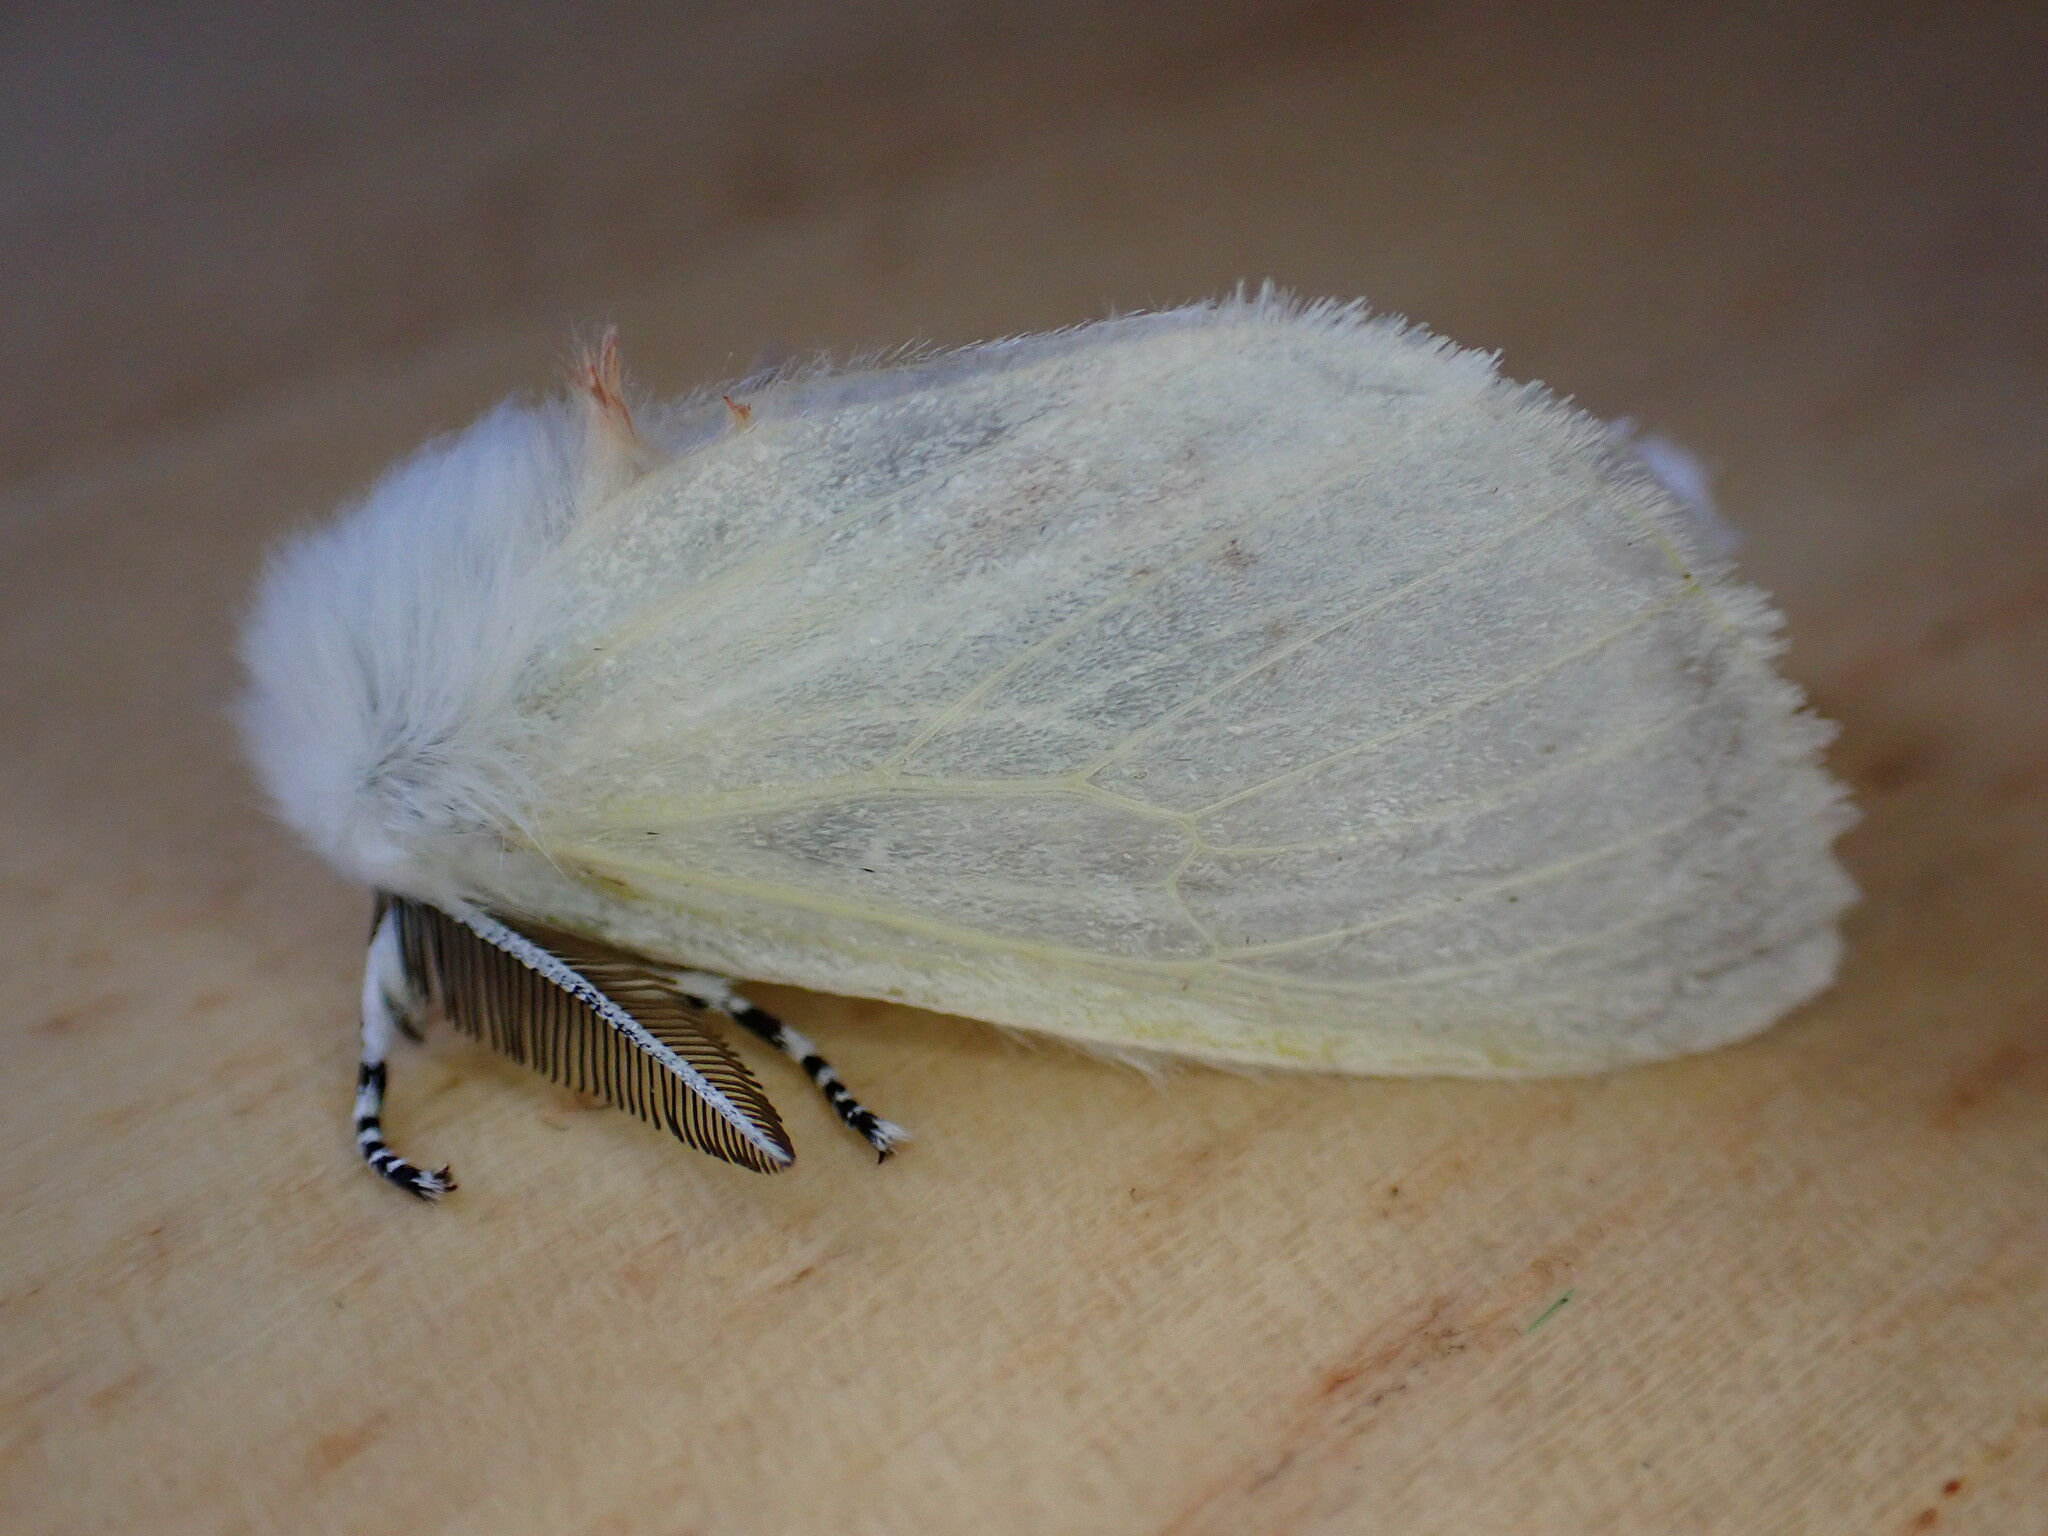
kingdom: Animalia
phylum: Arthropoda
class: Insecta
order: Lepidoptera
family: Erebidae
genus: Leucoma
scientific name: Leucoma salicis
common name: White satin moth
